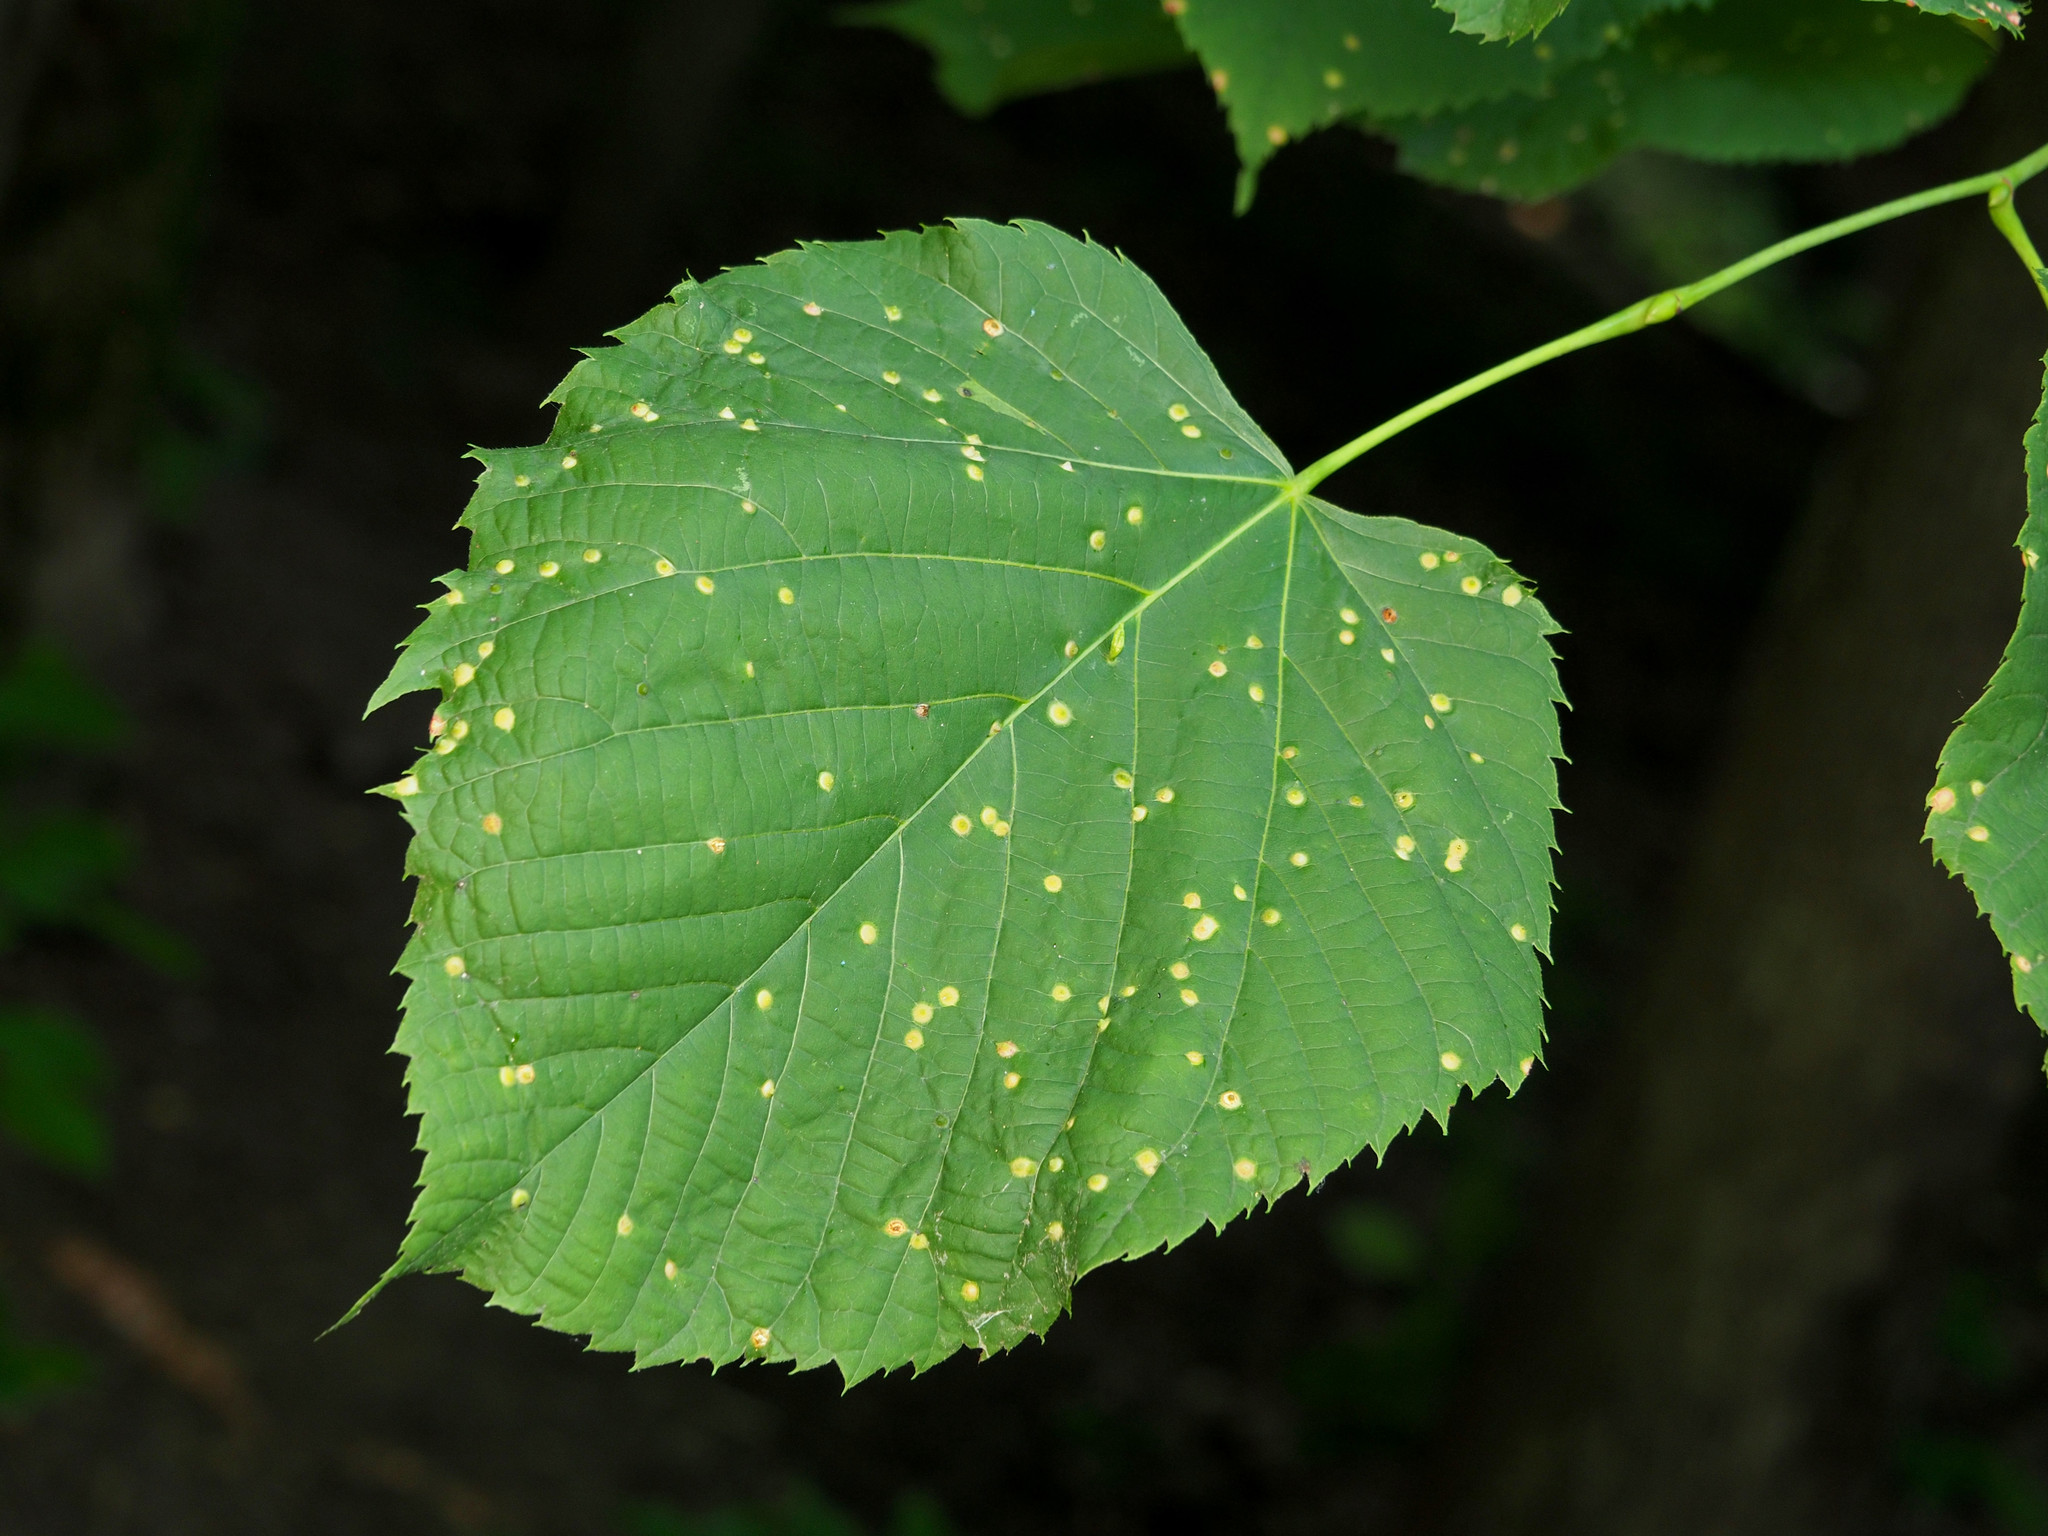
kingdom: Animalia
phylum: Arthropoda
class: Insecta
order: Diptera
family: Cecidomyiidae
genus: Contarinia
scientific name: Contarinia verrucicola
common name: Linden wart gall midge
